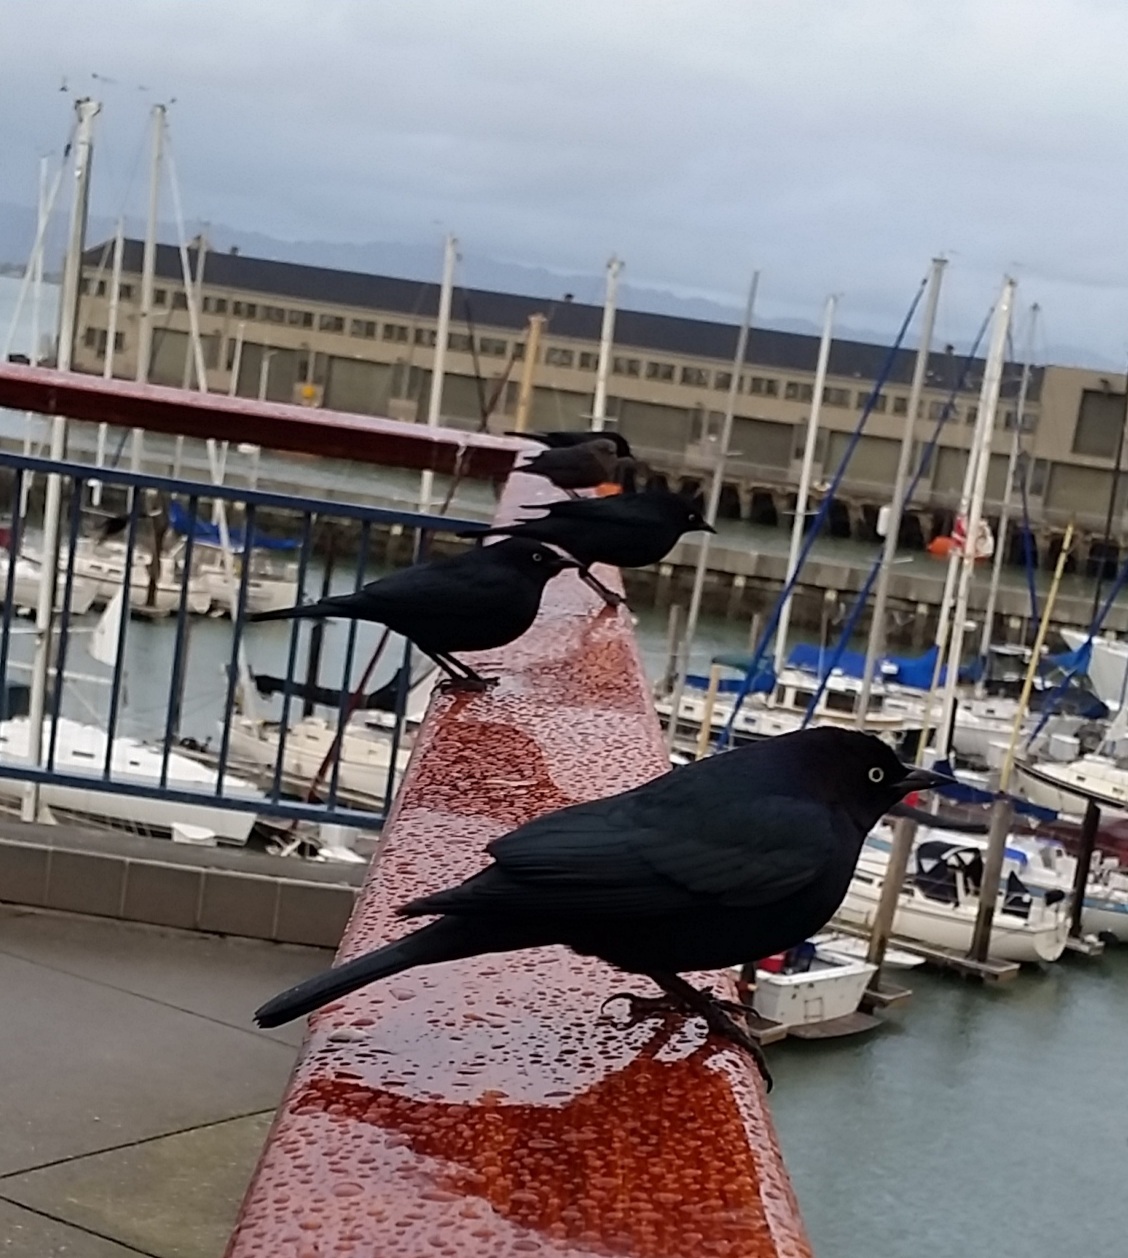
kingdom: Animalia
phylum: Chordata
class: Aves
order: Passeriformes
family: Icteridae
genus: Euphagus
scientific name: Euphagus cyanocephalus
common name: Brewer's blackbird
